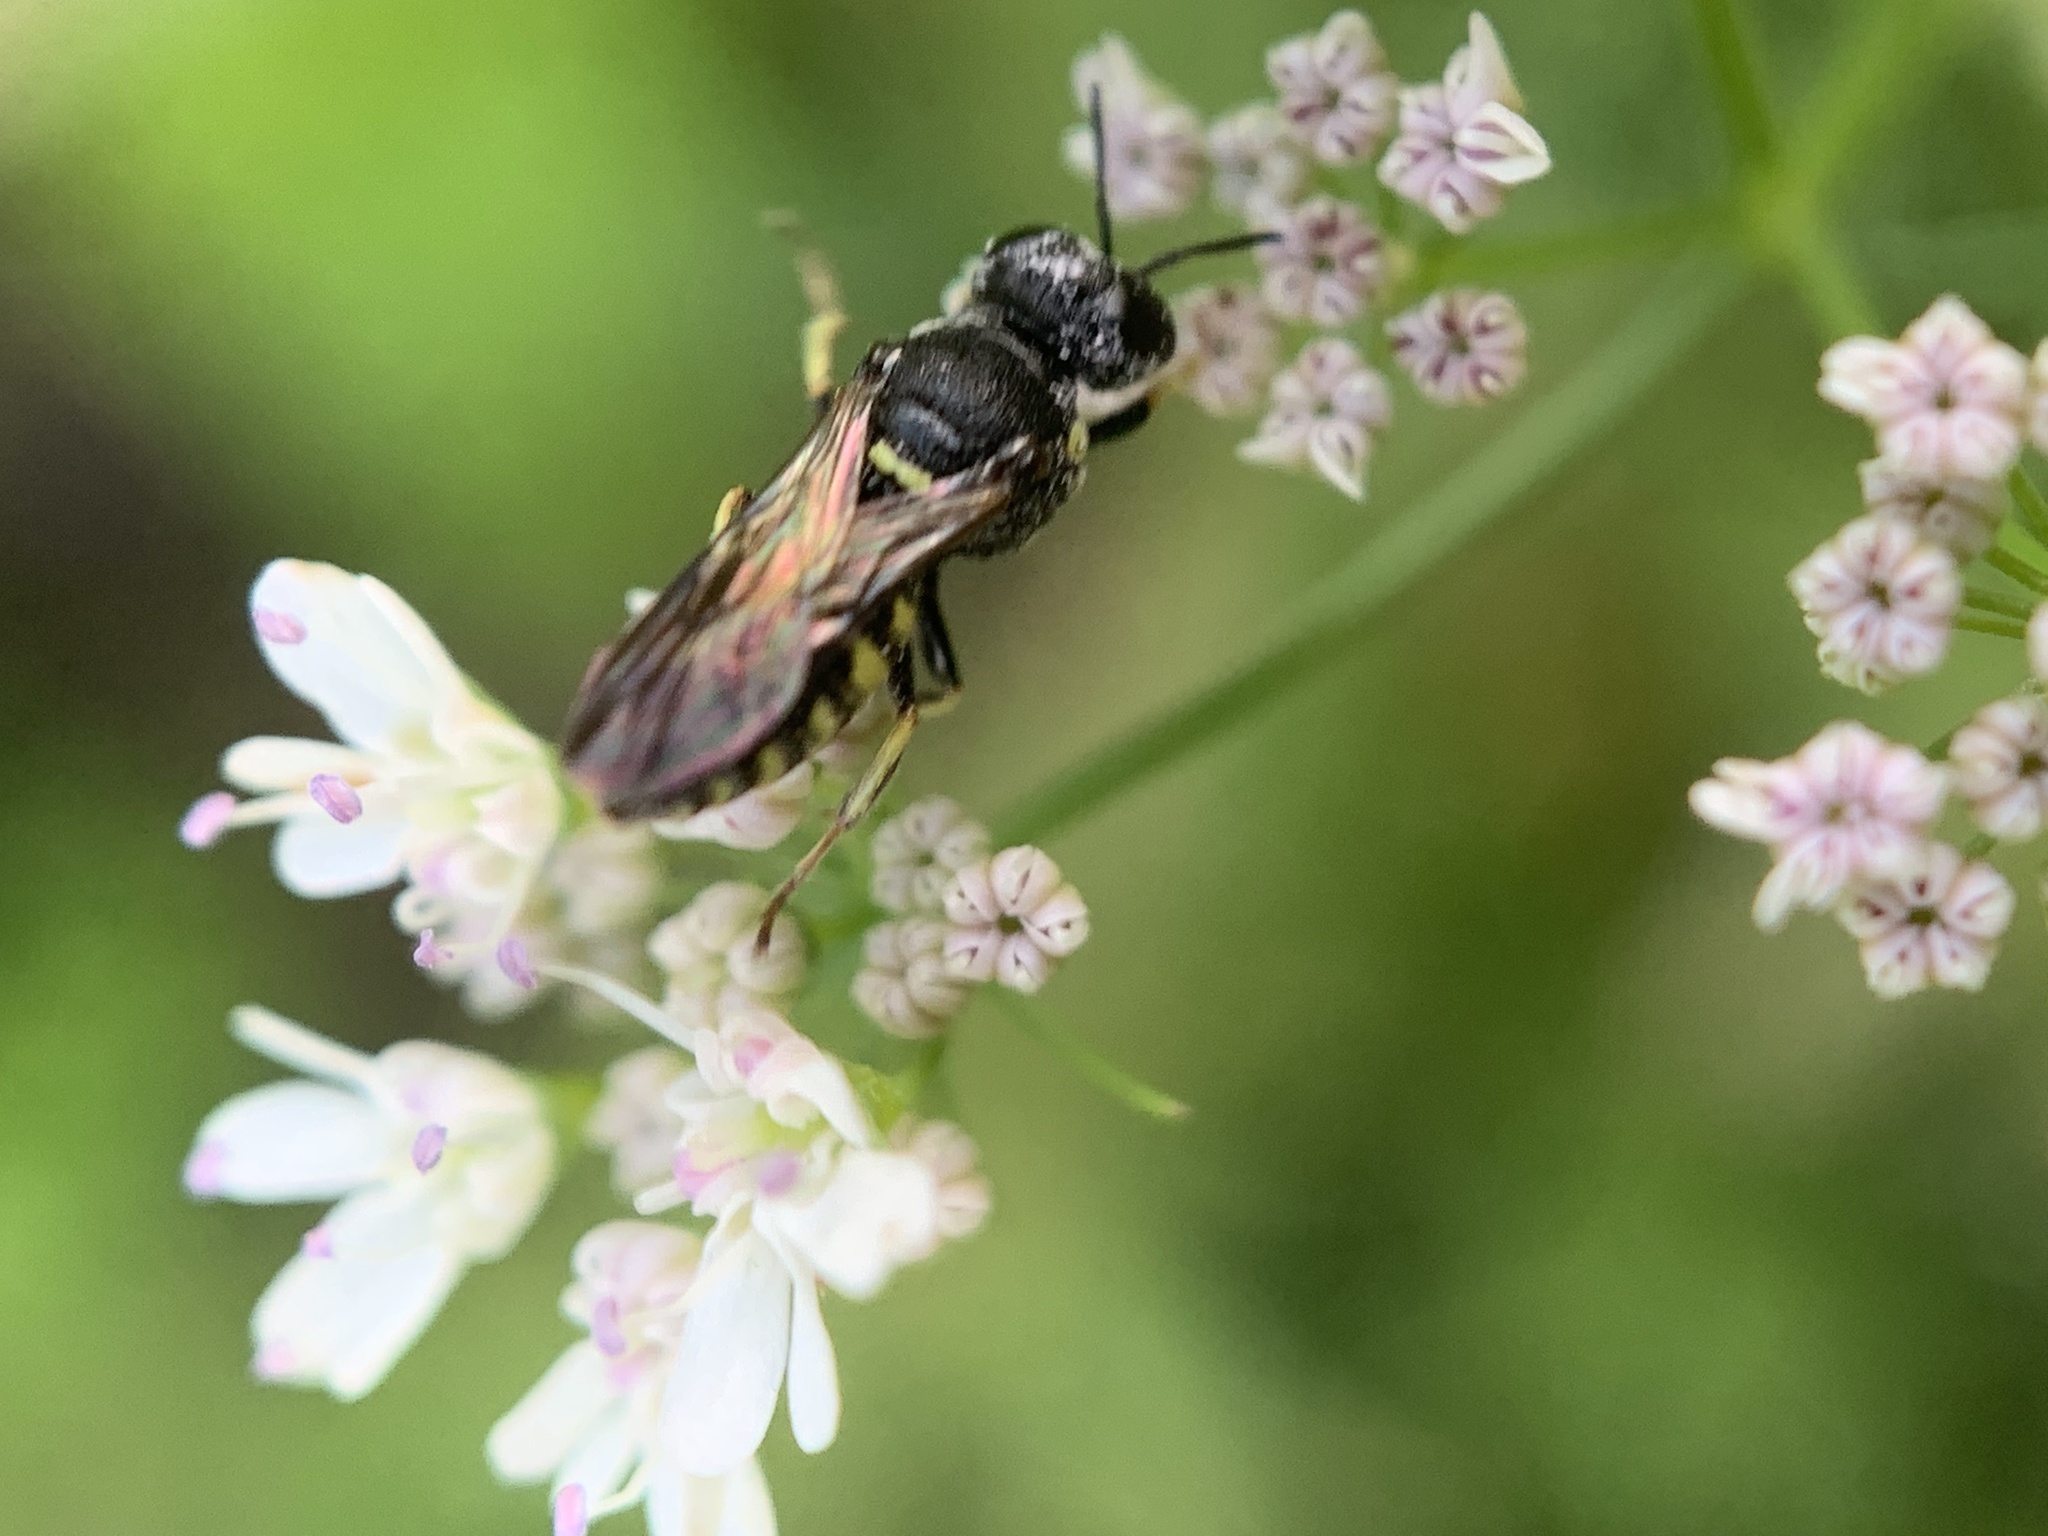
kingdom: Animalia
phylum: Arthropoda
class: Insecta
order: Hymenoptera
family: Crabronidae
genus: Anacrabro
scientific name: Anacrabro ocellatus
